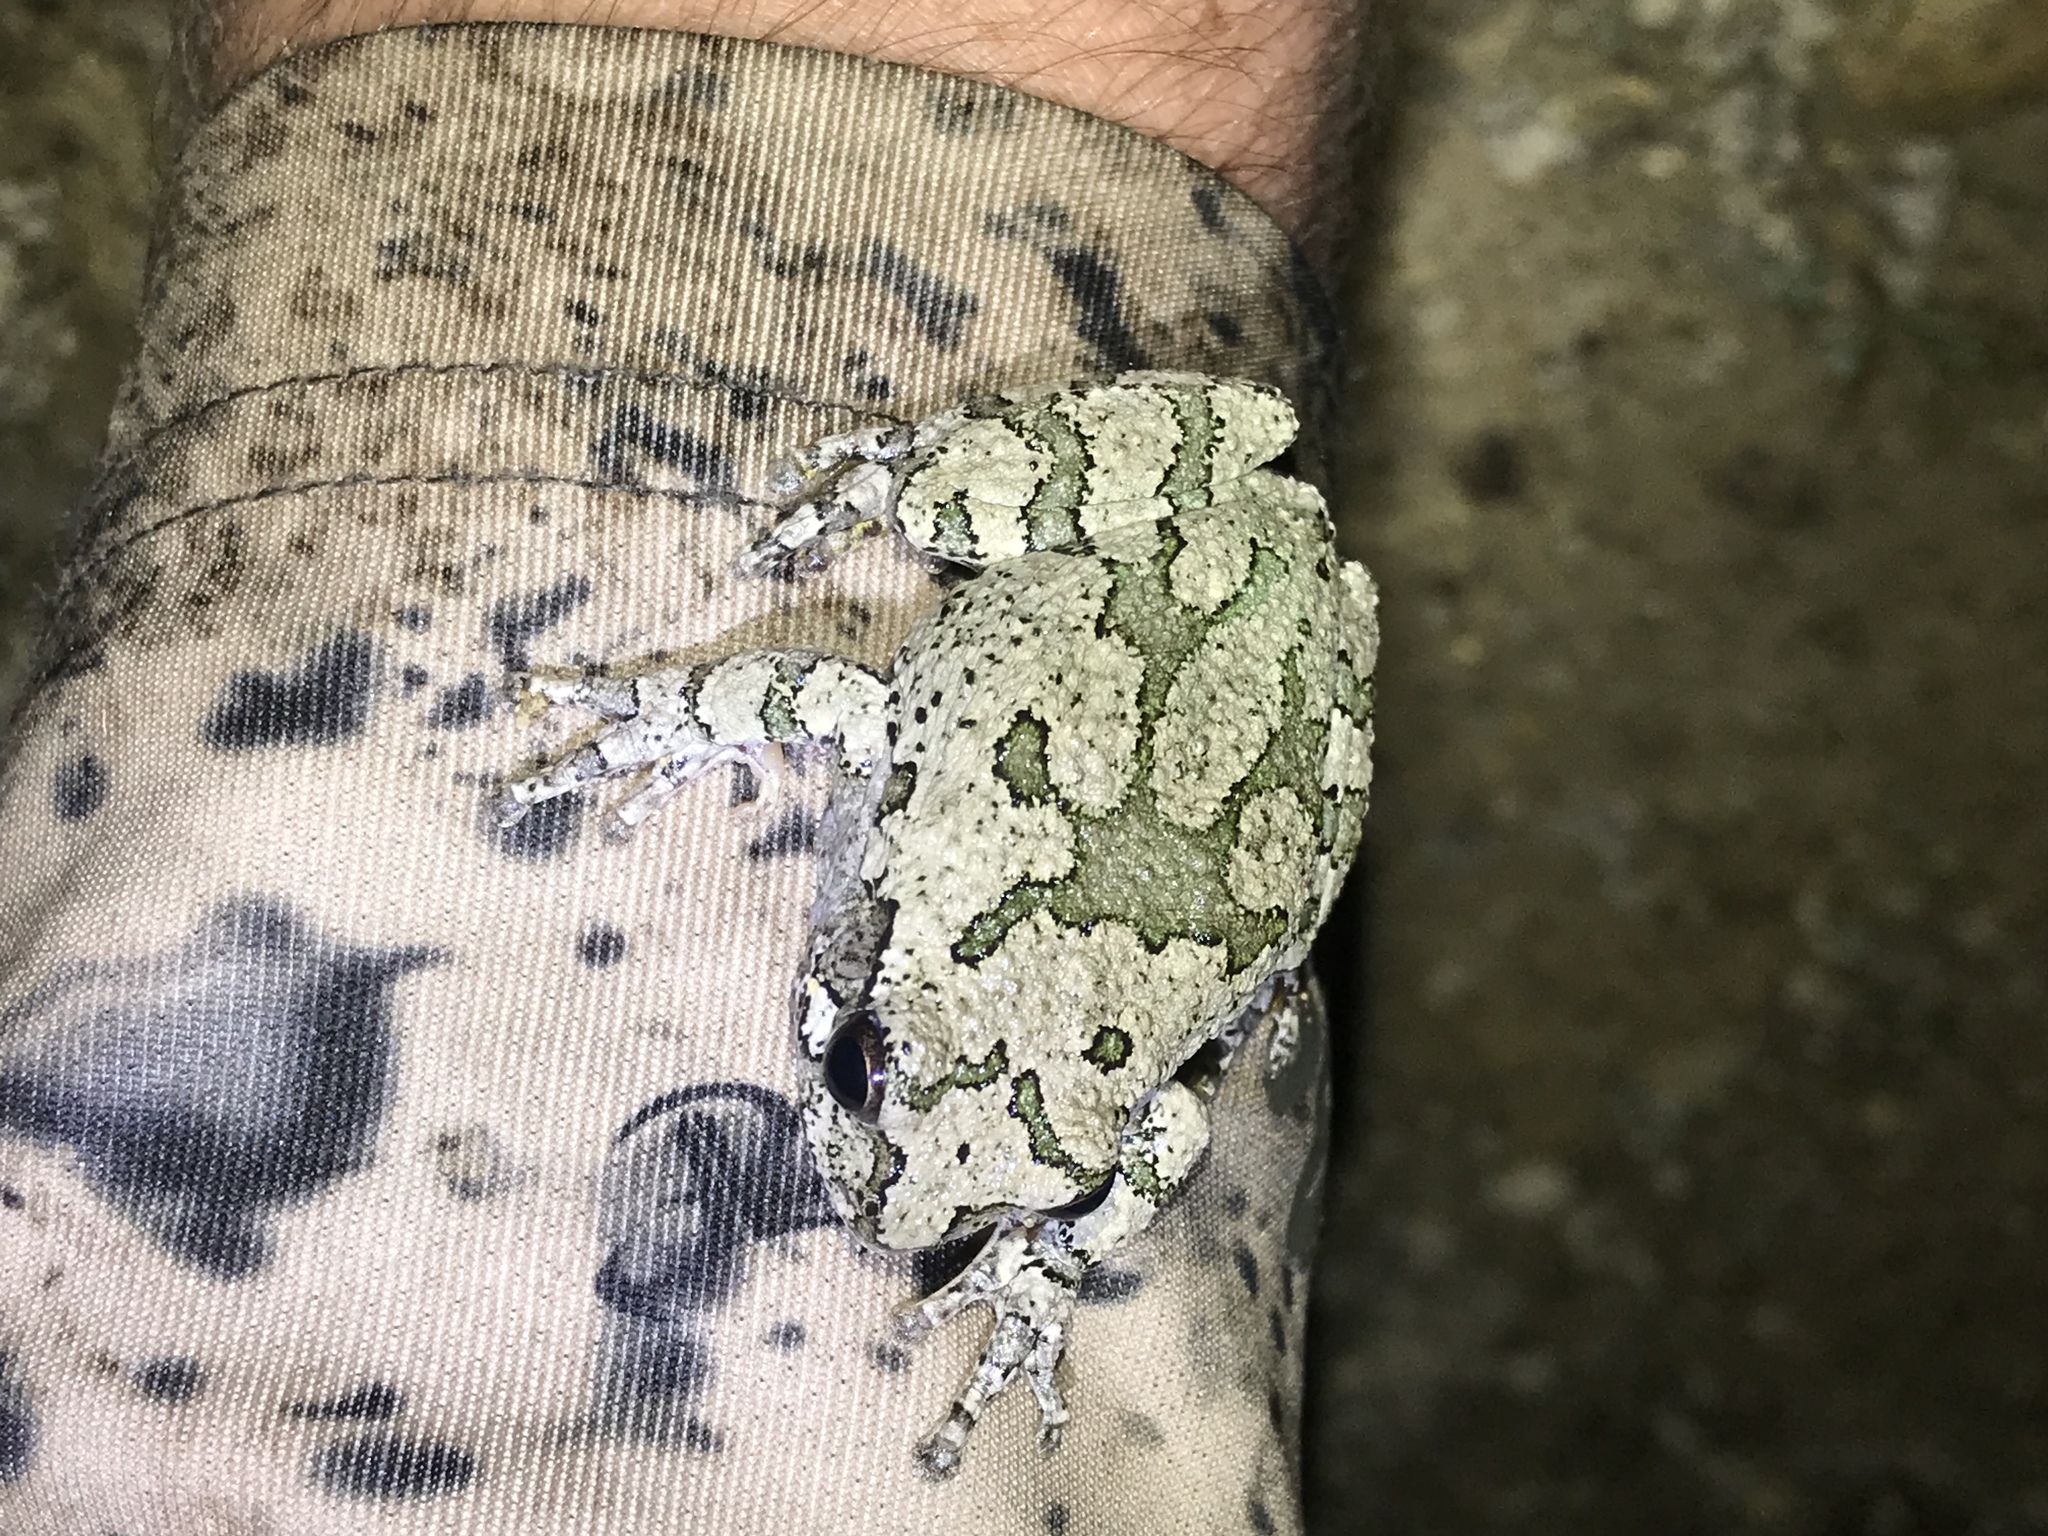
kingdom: Animalia
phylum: Chordata
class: Amphibia
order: Anura
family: Hylidae
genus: Dryophytes
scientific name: Dryophytes chrysoscelis
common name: Cope's gray treefrog
